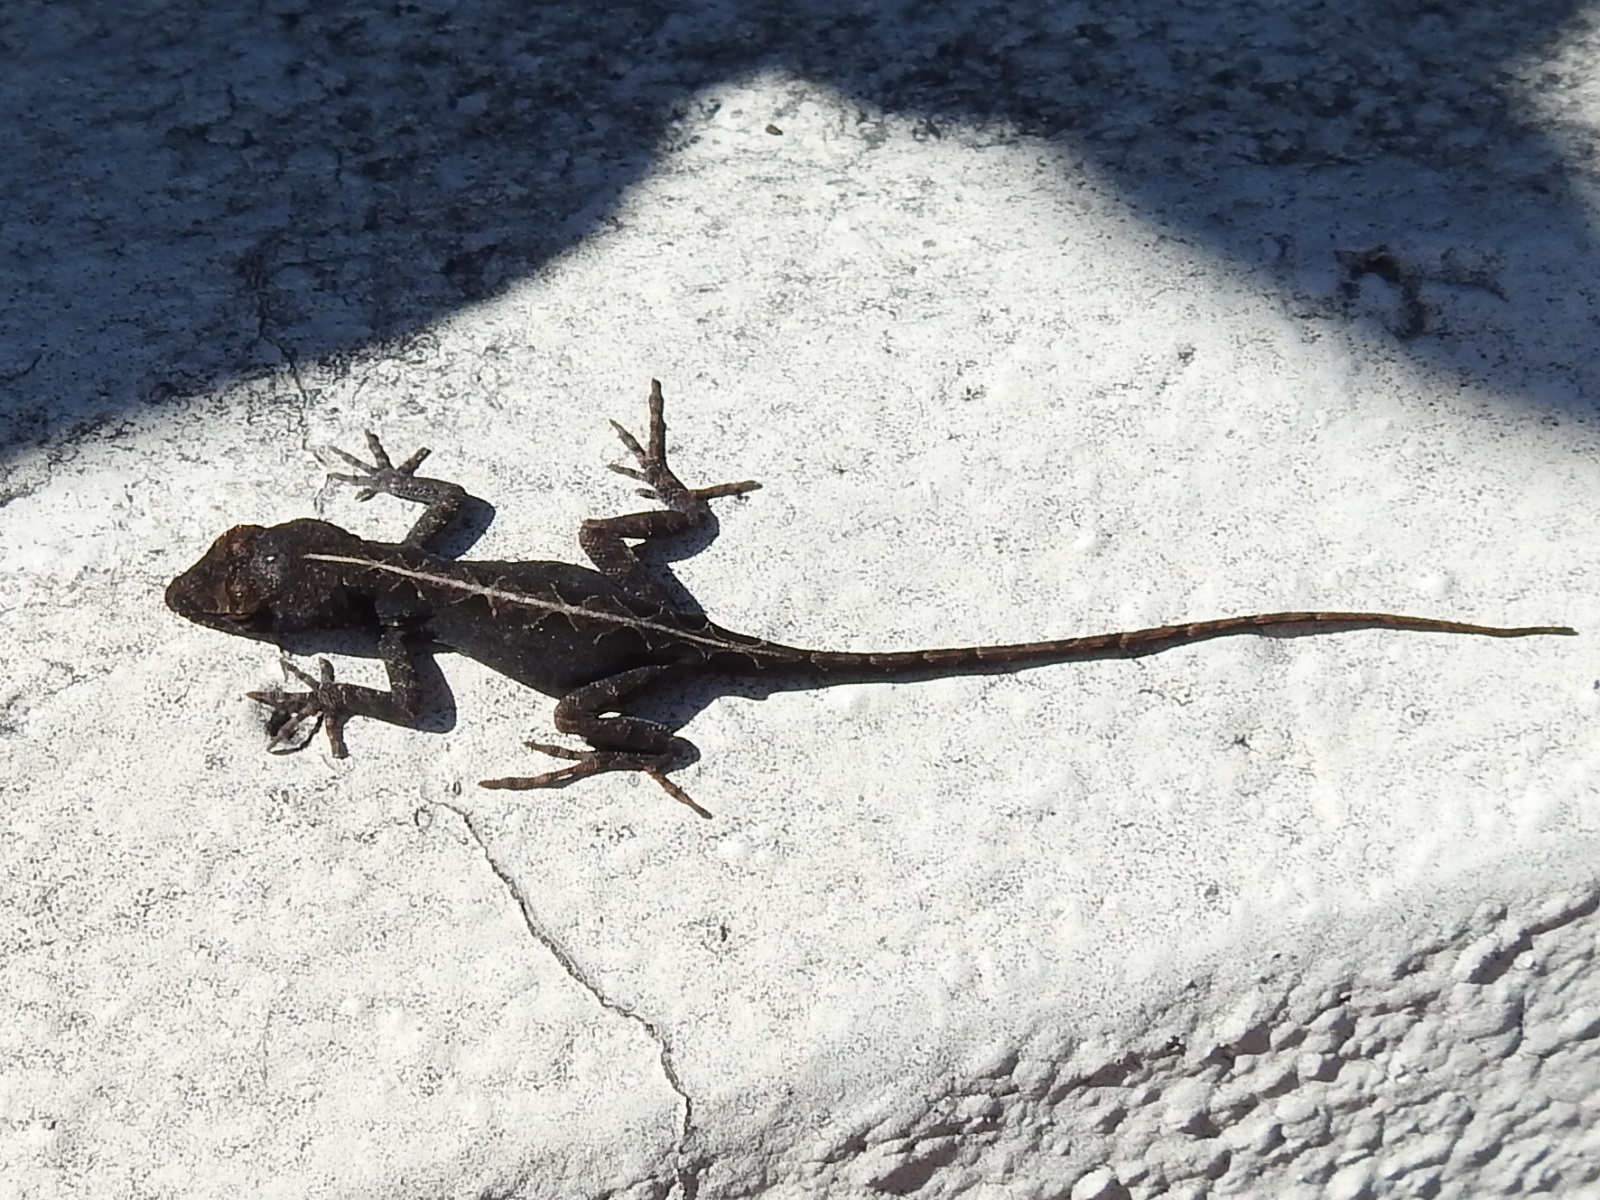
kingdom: Animalia
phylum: Chordata
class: Squamata
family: Dactyloidae
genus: Anolis
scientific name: Anolis sagrei
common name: Brown anole
